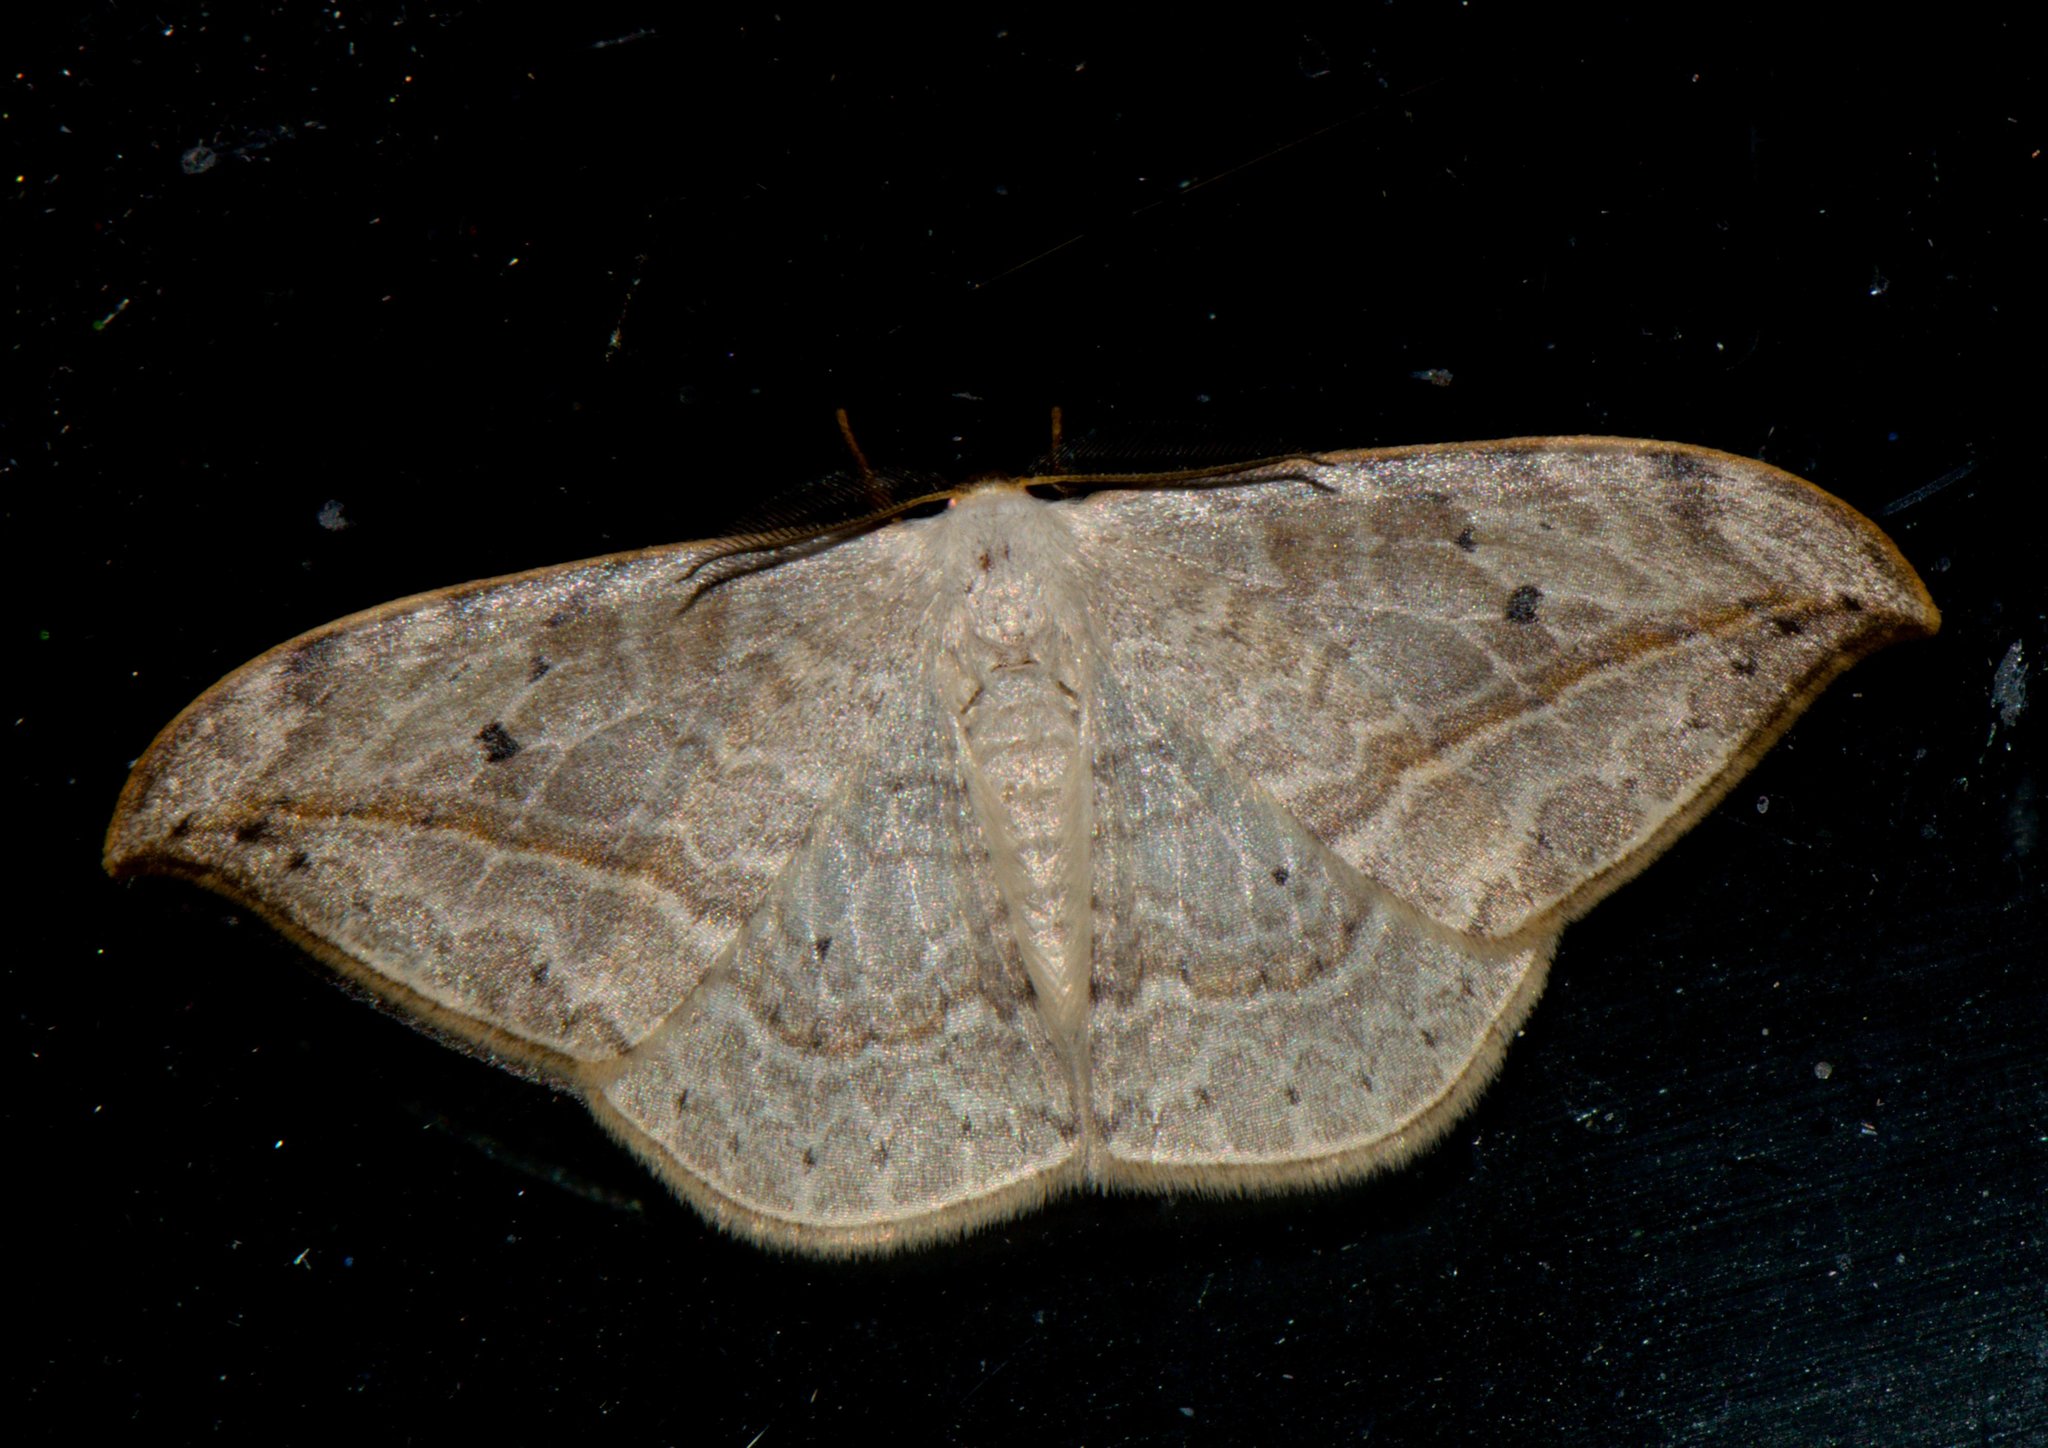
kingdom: Animalia
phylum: Arthropoda
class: Insecta
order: Lepidoptera
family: Drepanidae
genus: Drepana
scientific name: Drepana pallida
